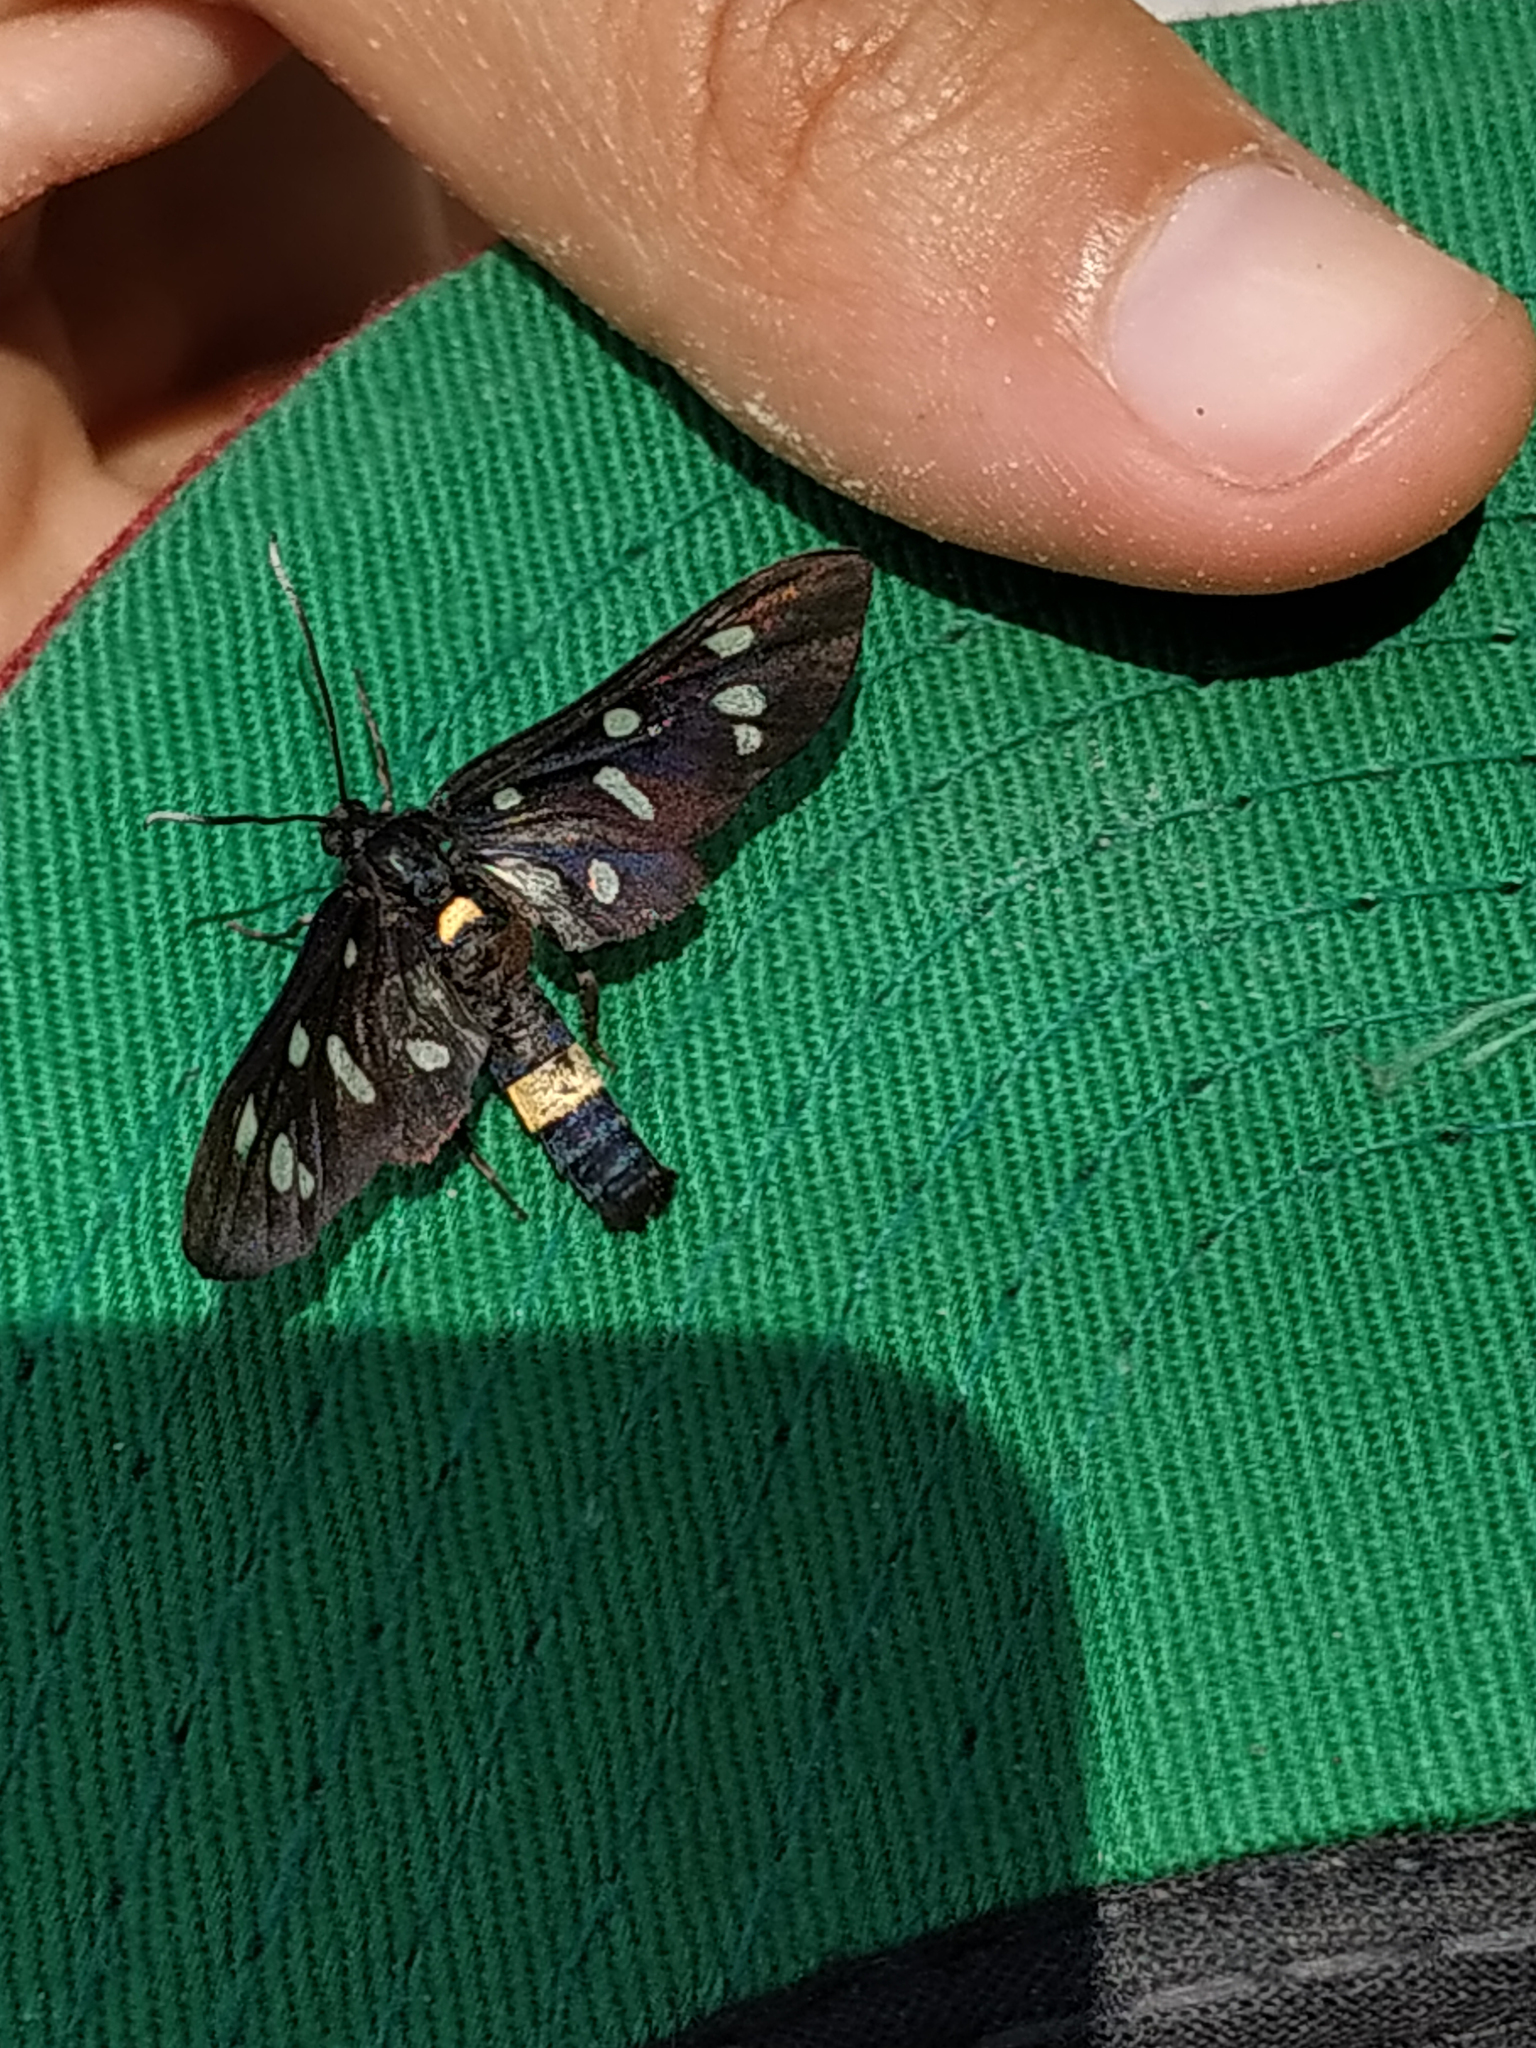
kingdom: Animalia
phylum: Arthropoda
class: Insecta
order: Lepidoptera
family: Erebidae
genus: Amata
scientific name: Amata phegea
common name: Nine-spotted
